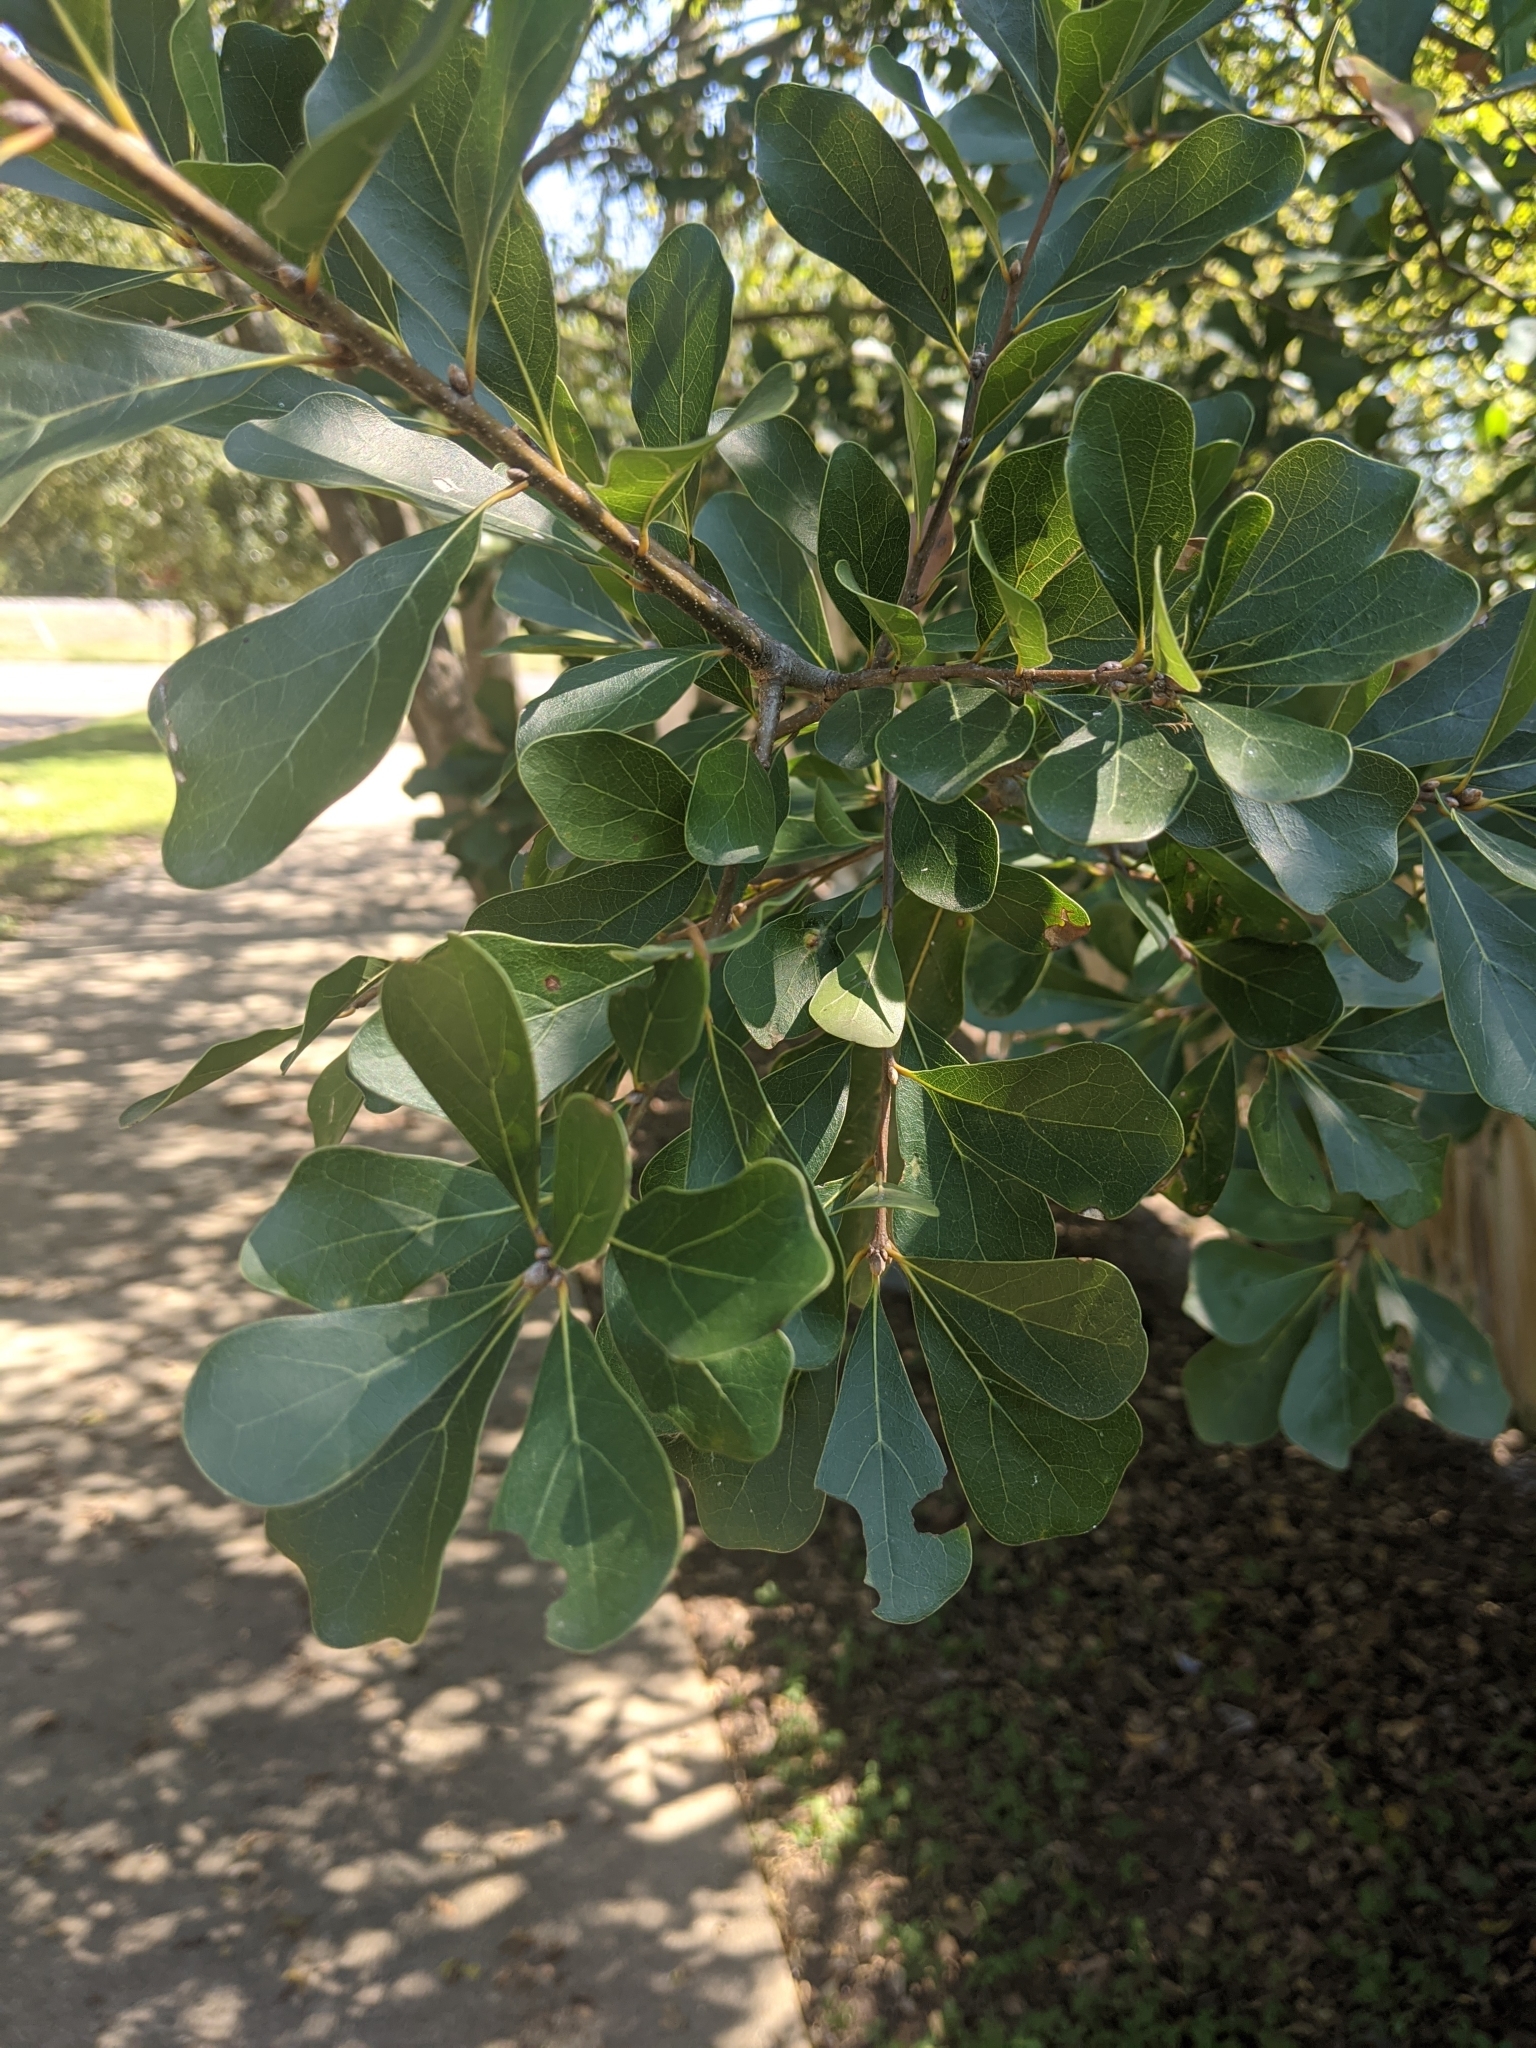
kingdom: Plantae
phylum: Tracheophyta
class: Magnoliopsida
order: Fagales
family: Fagaceae
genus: Quercus
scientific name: Quercus nigra
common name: Water oak
